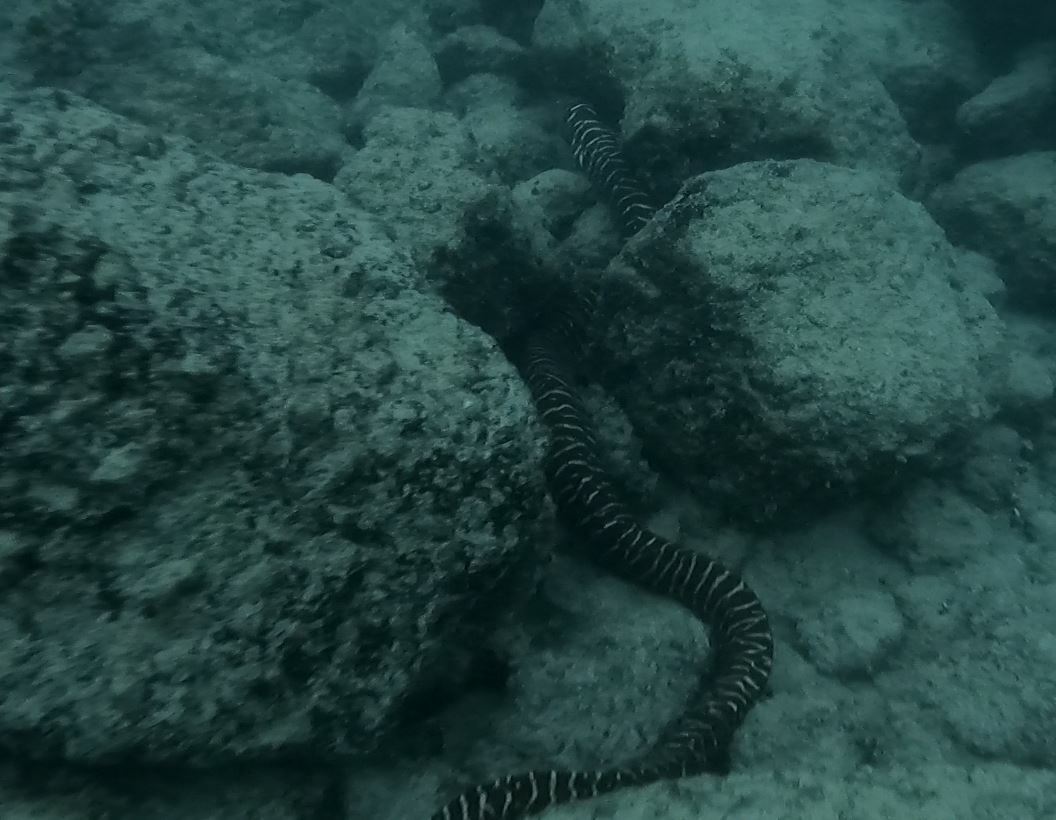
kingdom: Animalia
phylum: Chordata
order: Anguilliformes
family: Muraenidae
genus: Gymnomuraena
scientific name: Gymnomuraena zebra
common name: Zebra moray
